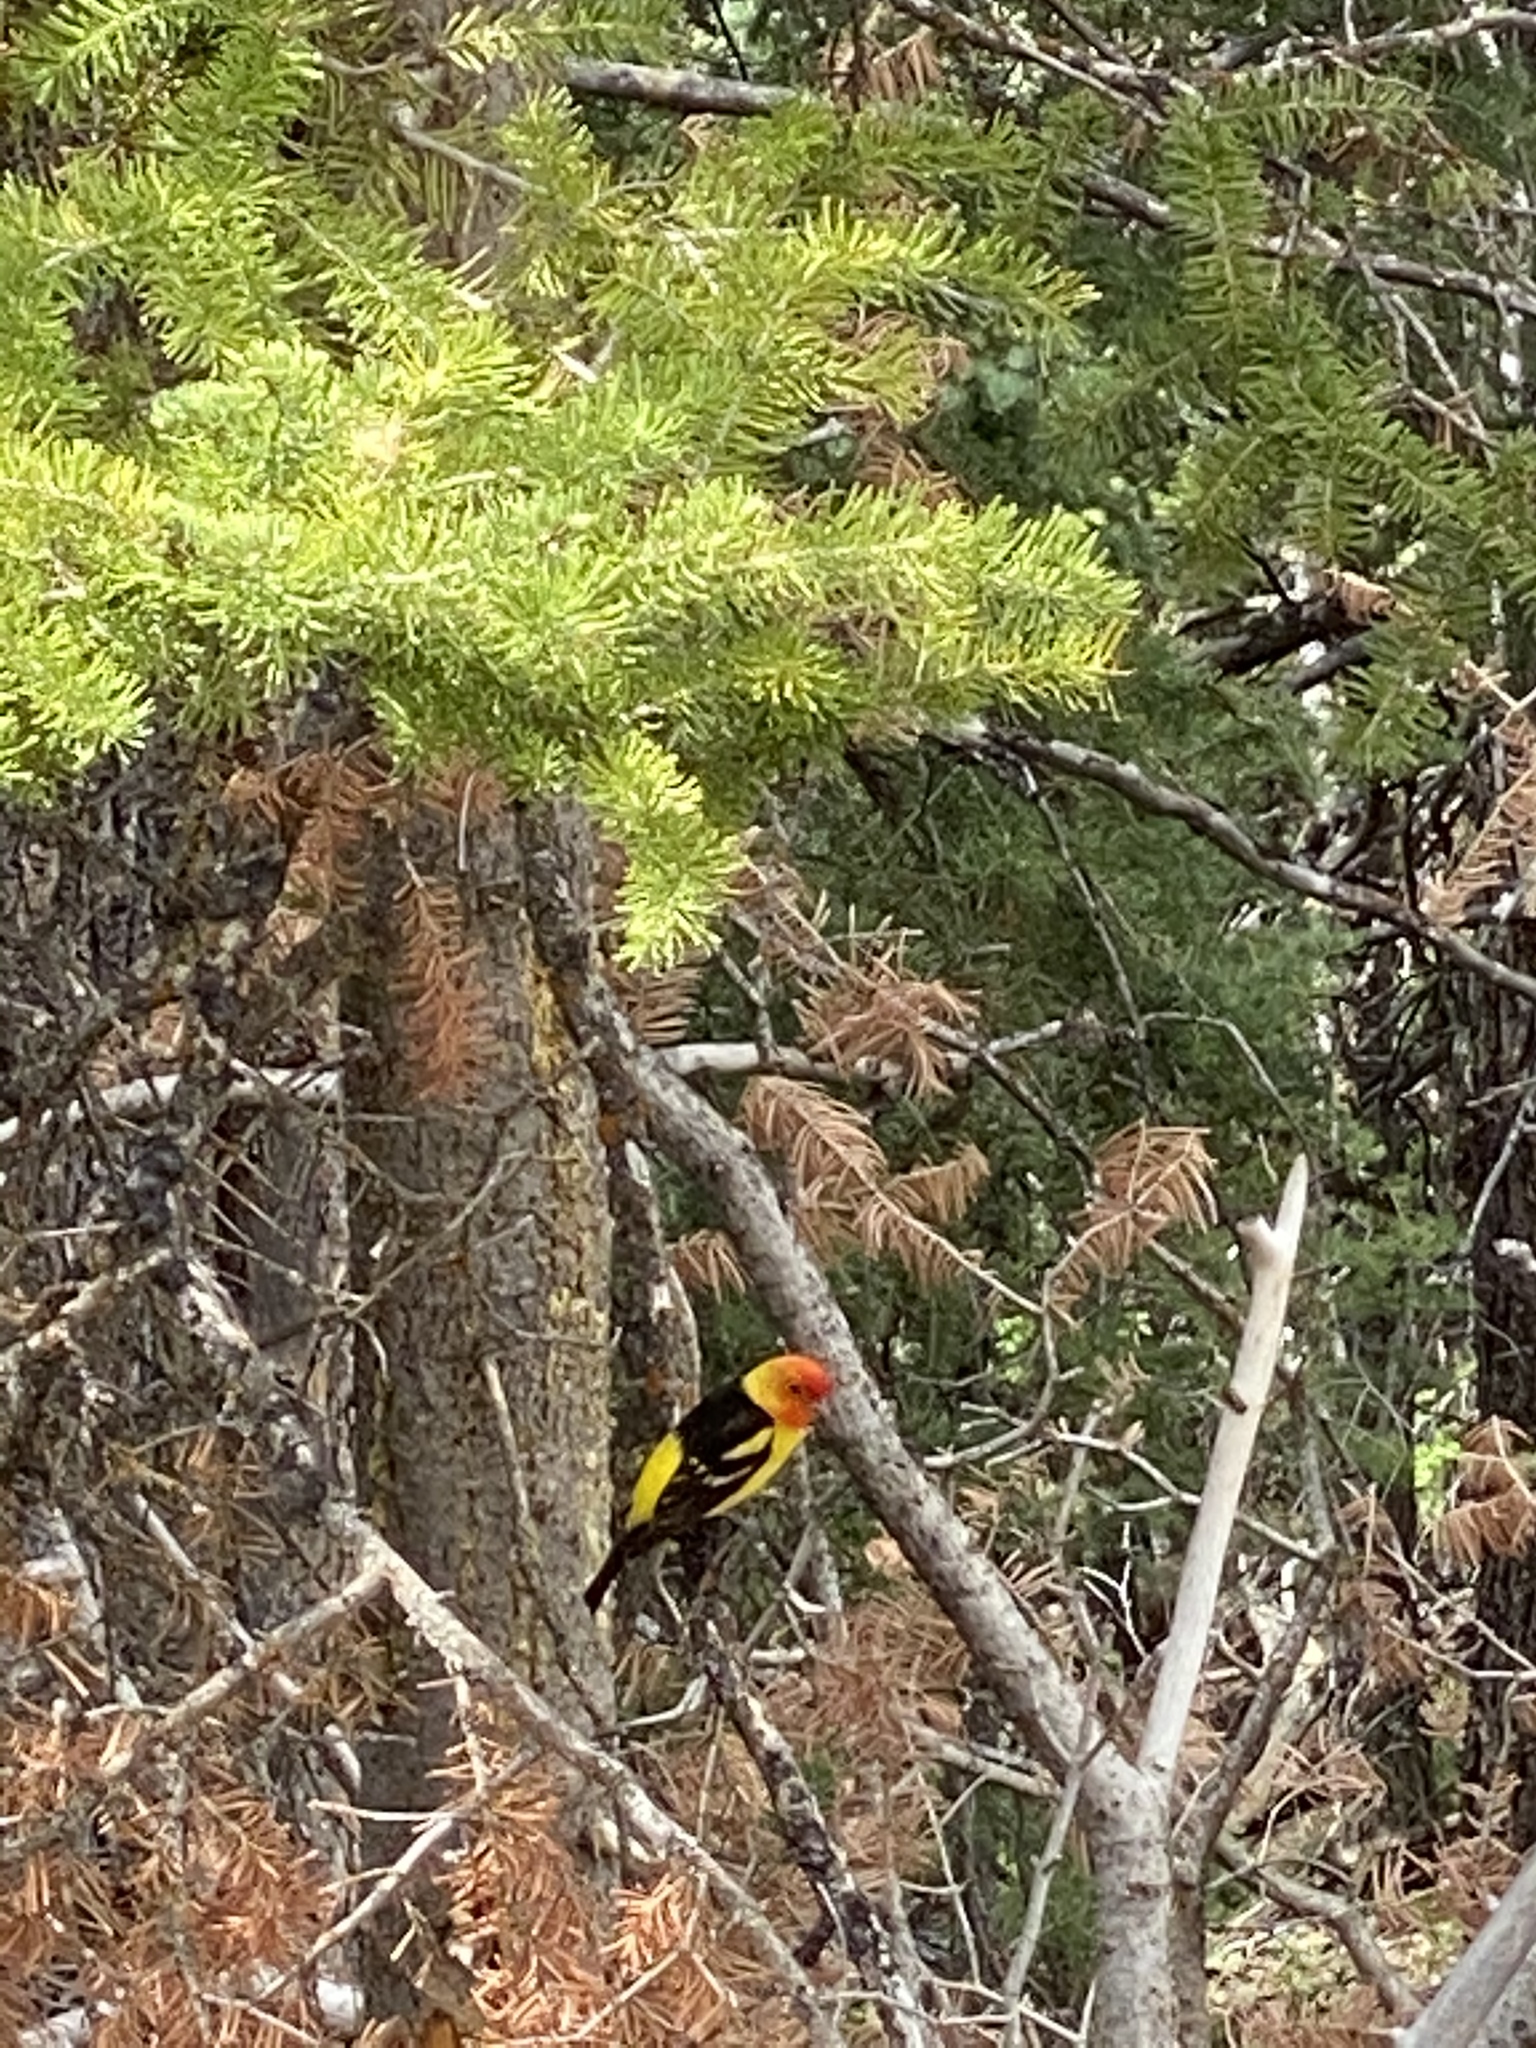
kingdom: Animalia
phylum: Chordata
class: Aves
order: Passeriformes
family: Cardinalidae
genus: Piranga
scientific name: Piranga ludoviciana
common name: Western tanager
